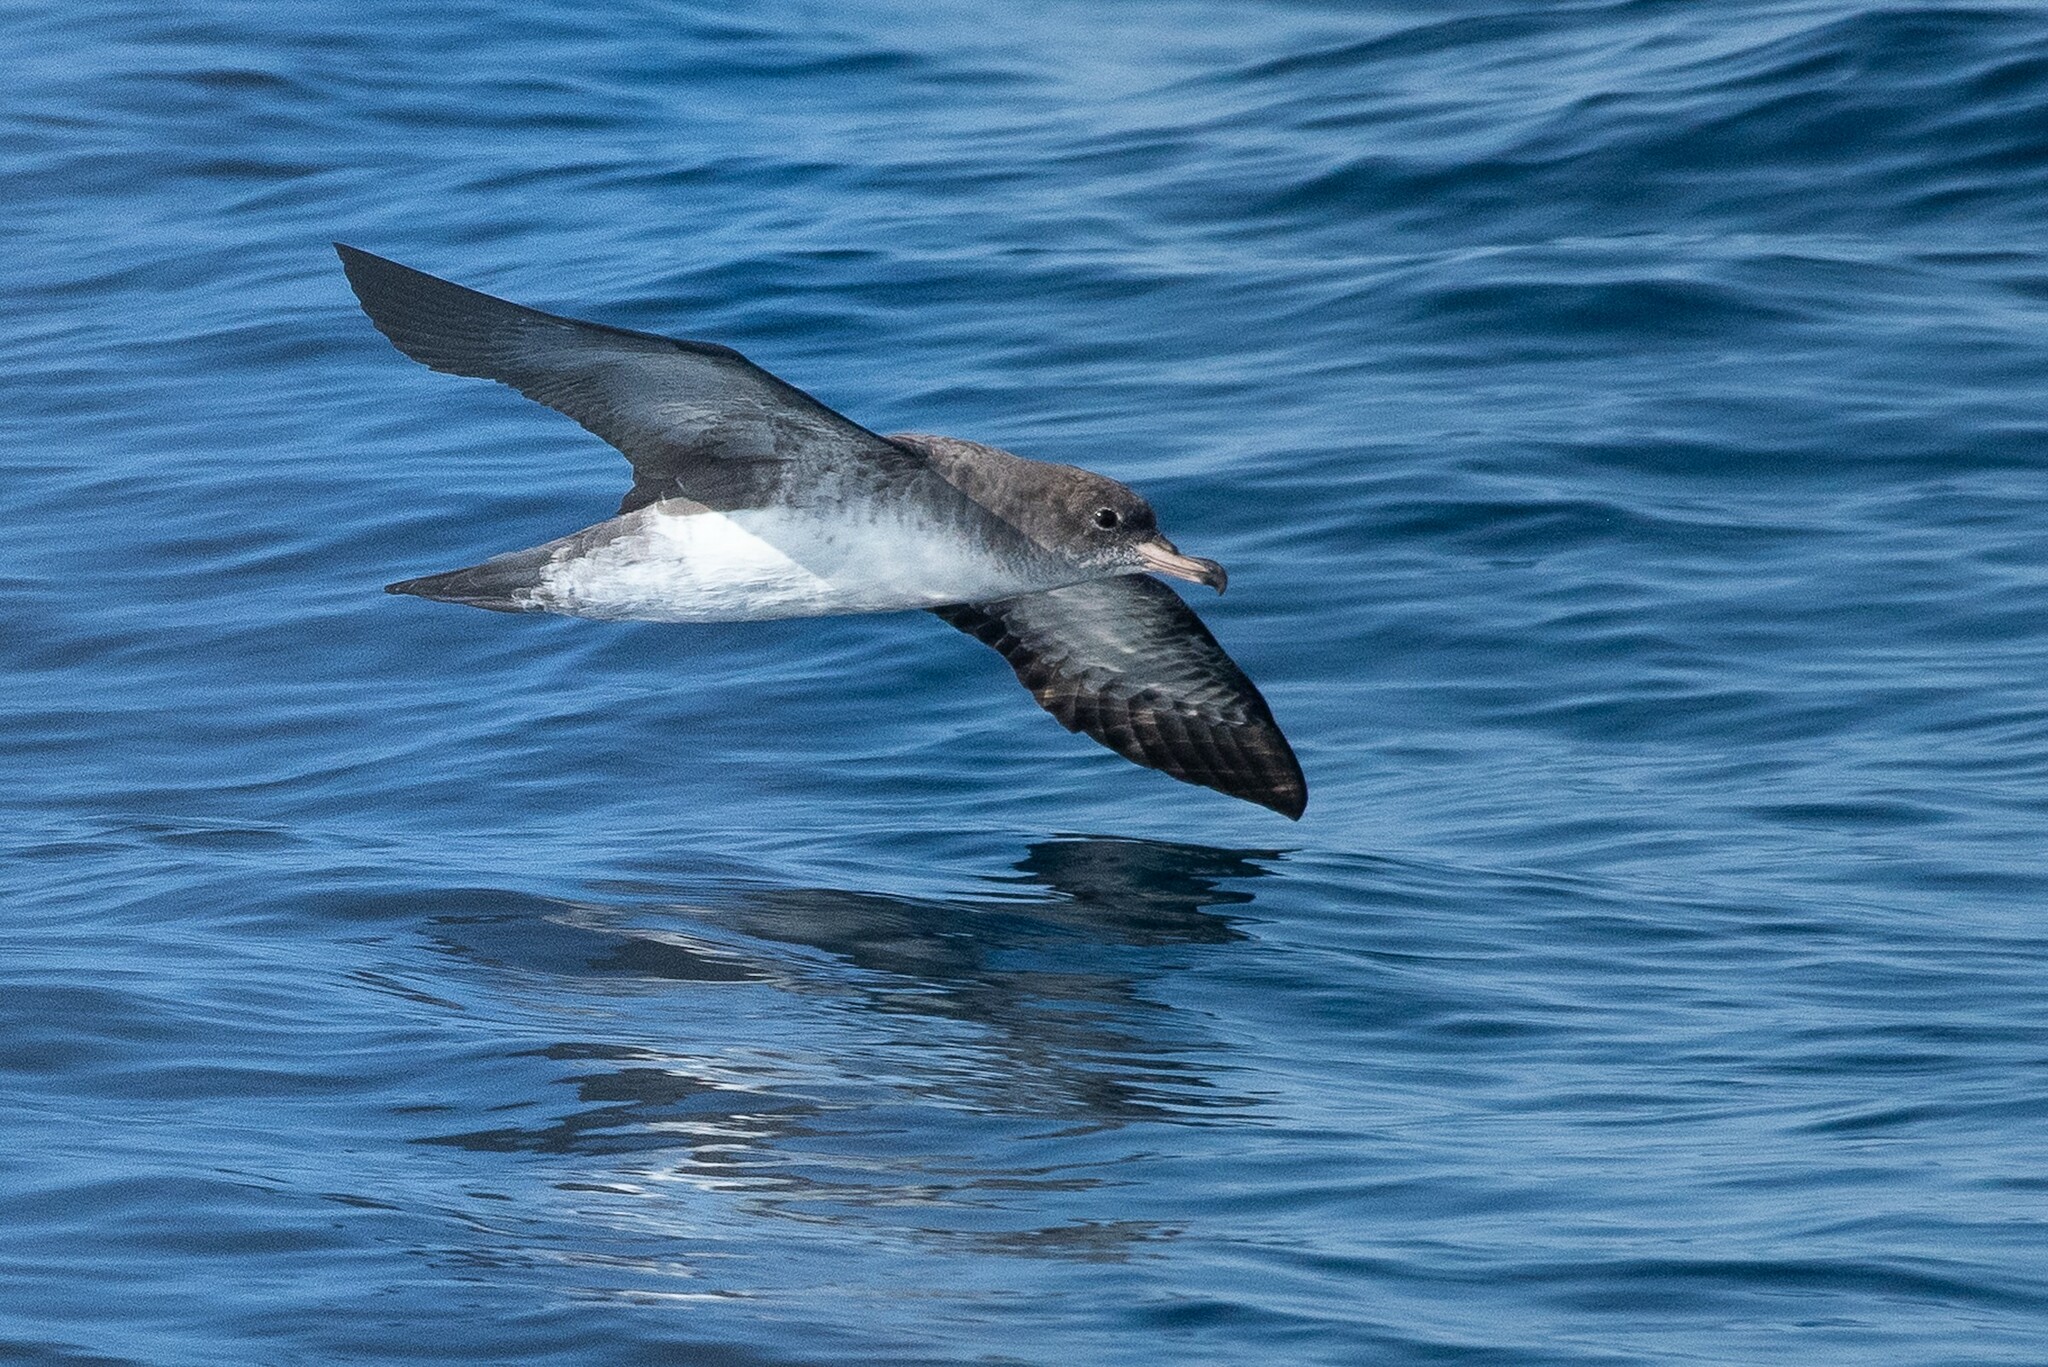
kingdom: Animalia
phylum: Chordata
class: Aves
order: Procellariiformes
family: Procellariidae
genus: Puffinus
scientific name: Puffinus creatopus
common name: Pink-footed shearwater
